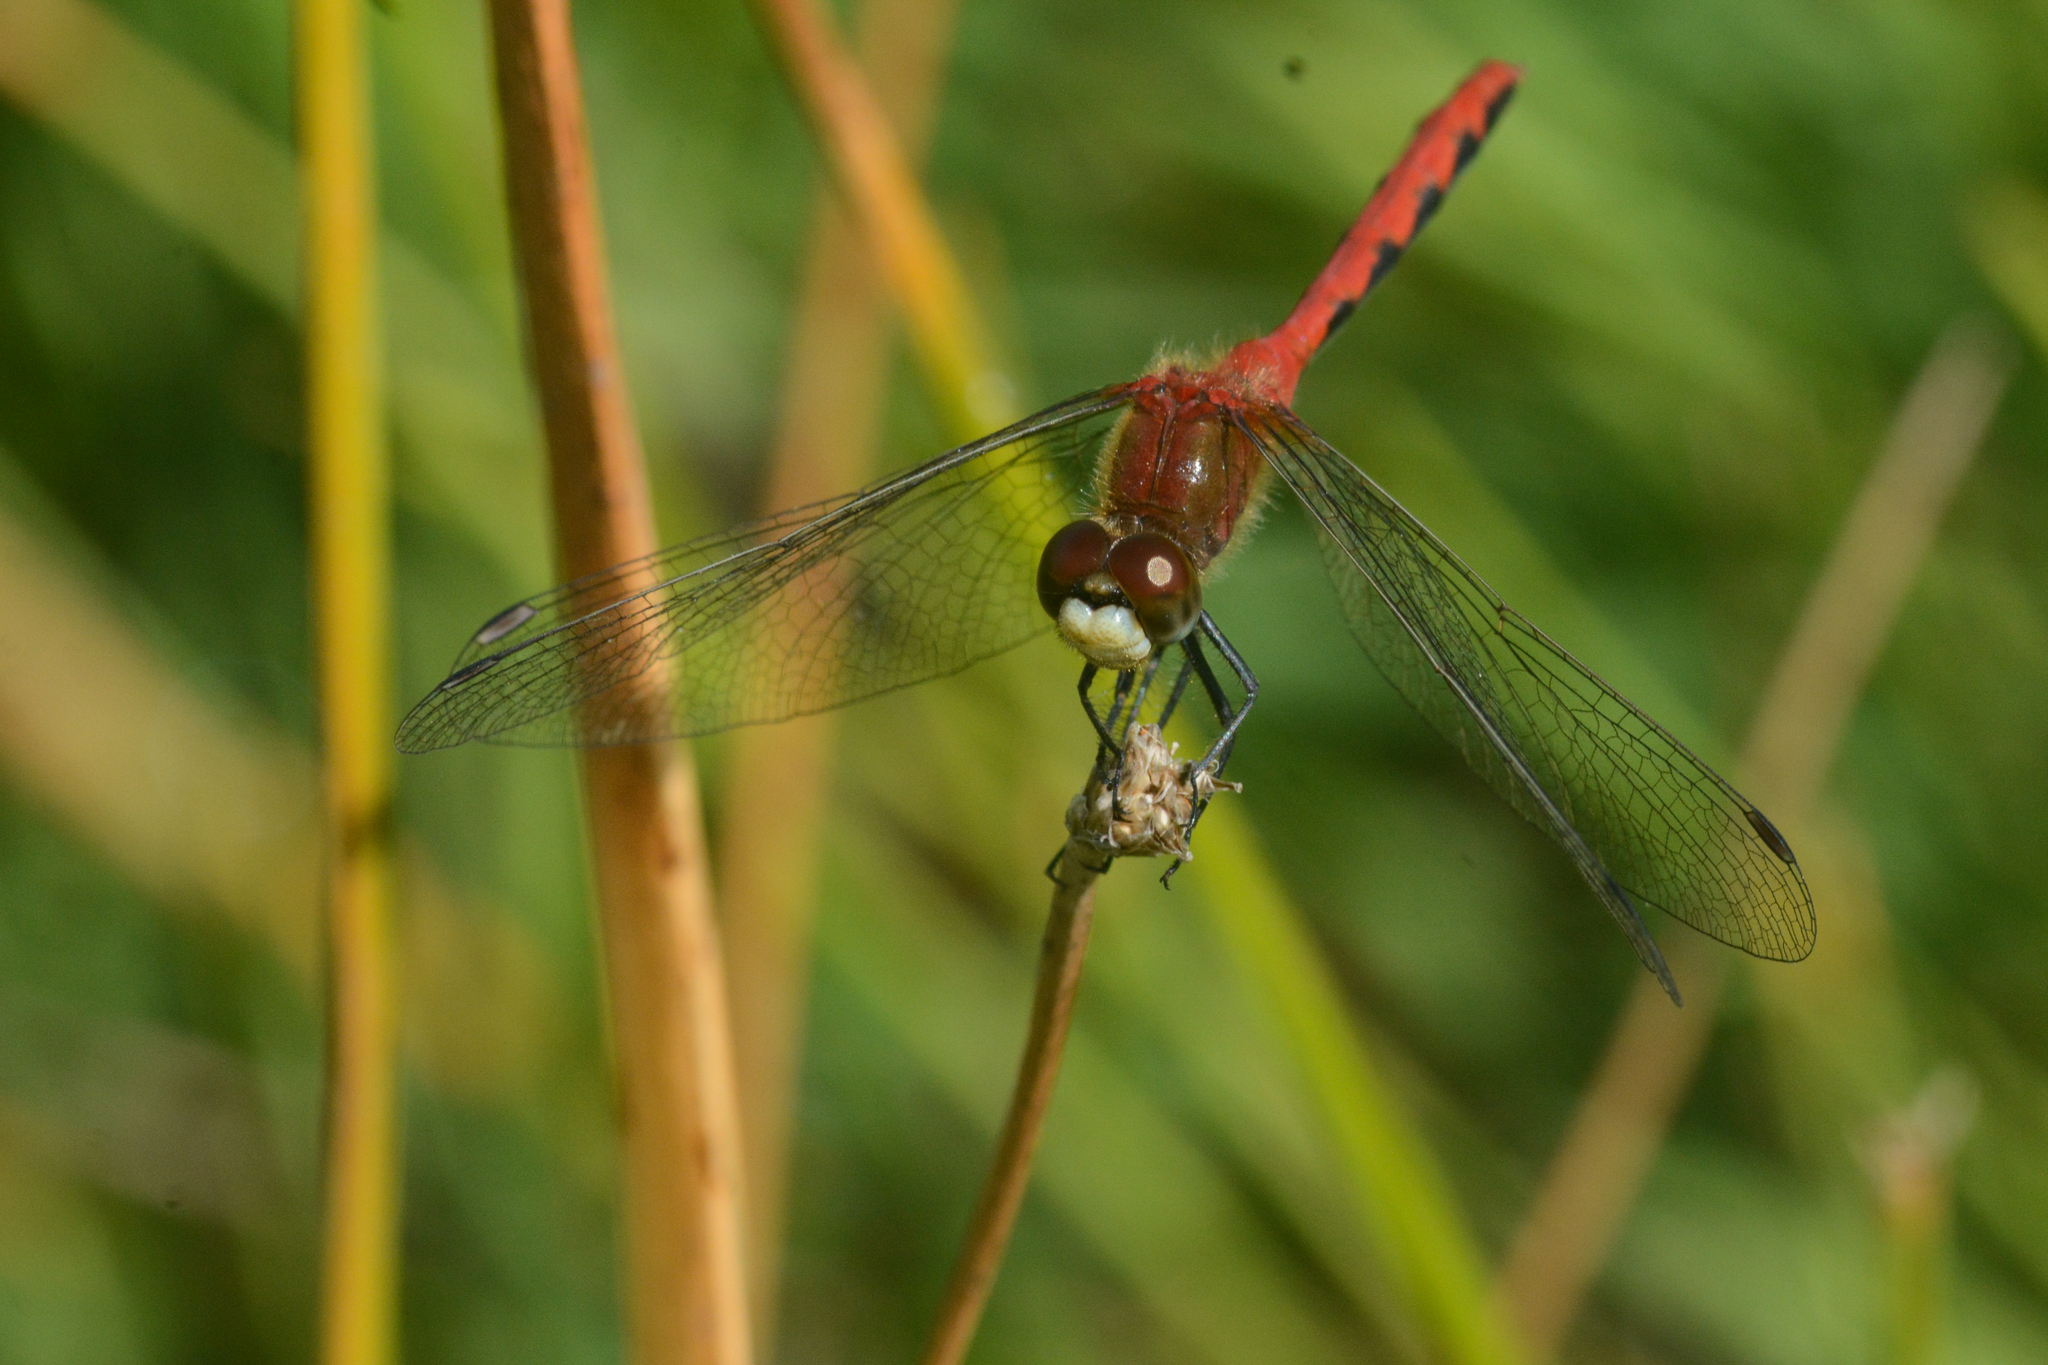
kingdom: Animalia
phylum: Arthropoda
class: Insecta
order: Odonata
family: Libellulidae
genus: Sympetrum
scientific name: Sympetrum obtrusum
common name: White-faced meadowhawk
